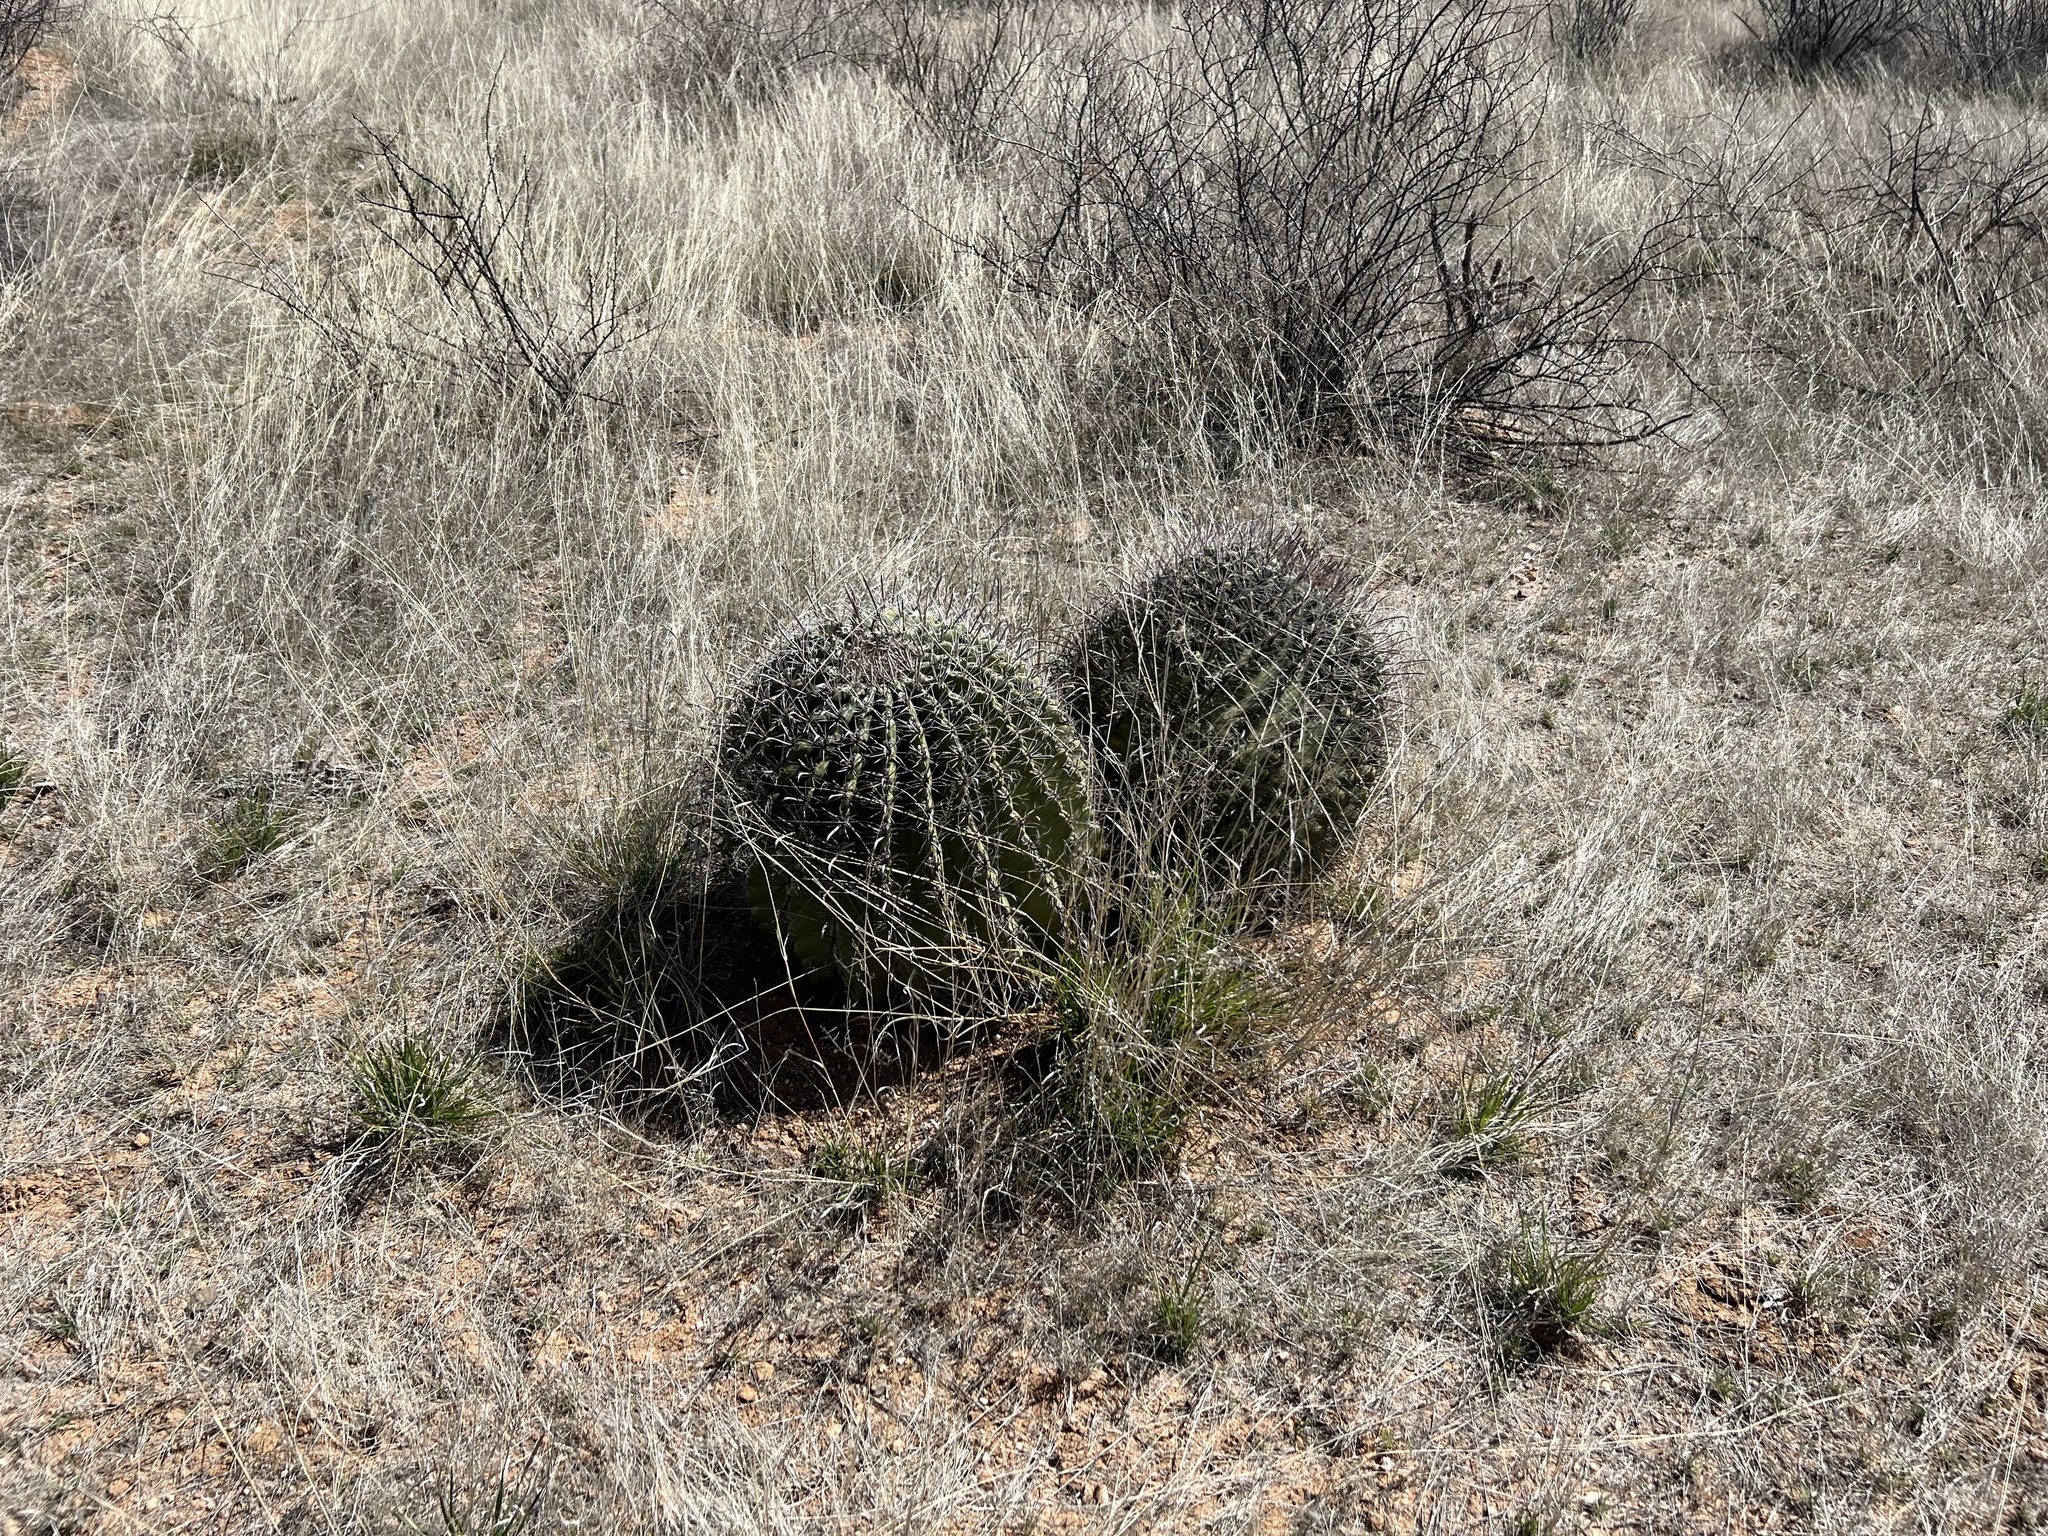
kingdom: Plantae
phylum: Tracheophyta
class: Magnoliopsida
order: Caryophyllales
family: Cactaceae
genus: Ferocactus
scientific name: Ferocactus wislizeni
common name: Candy barrel cactus
